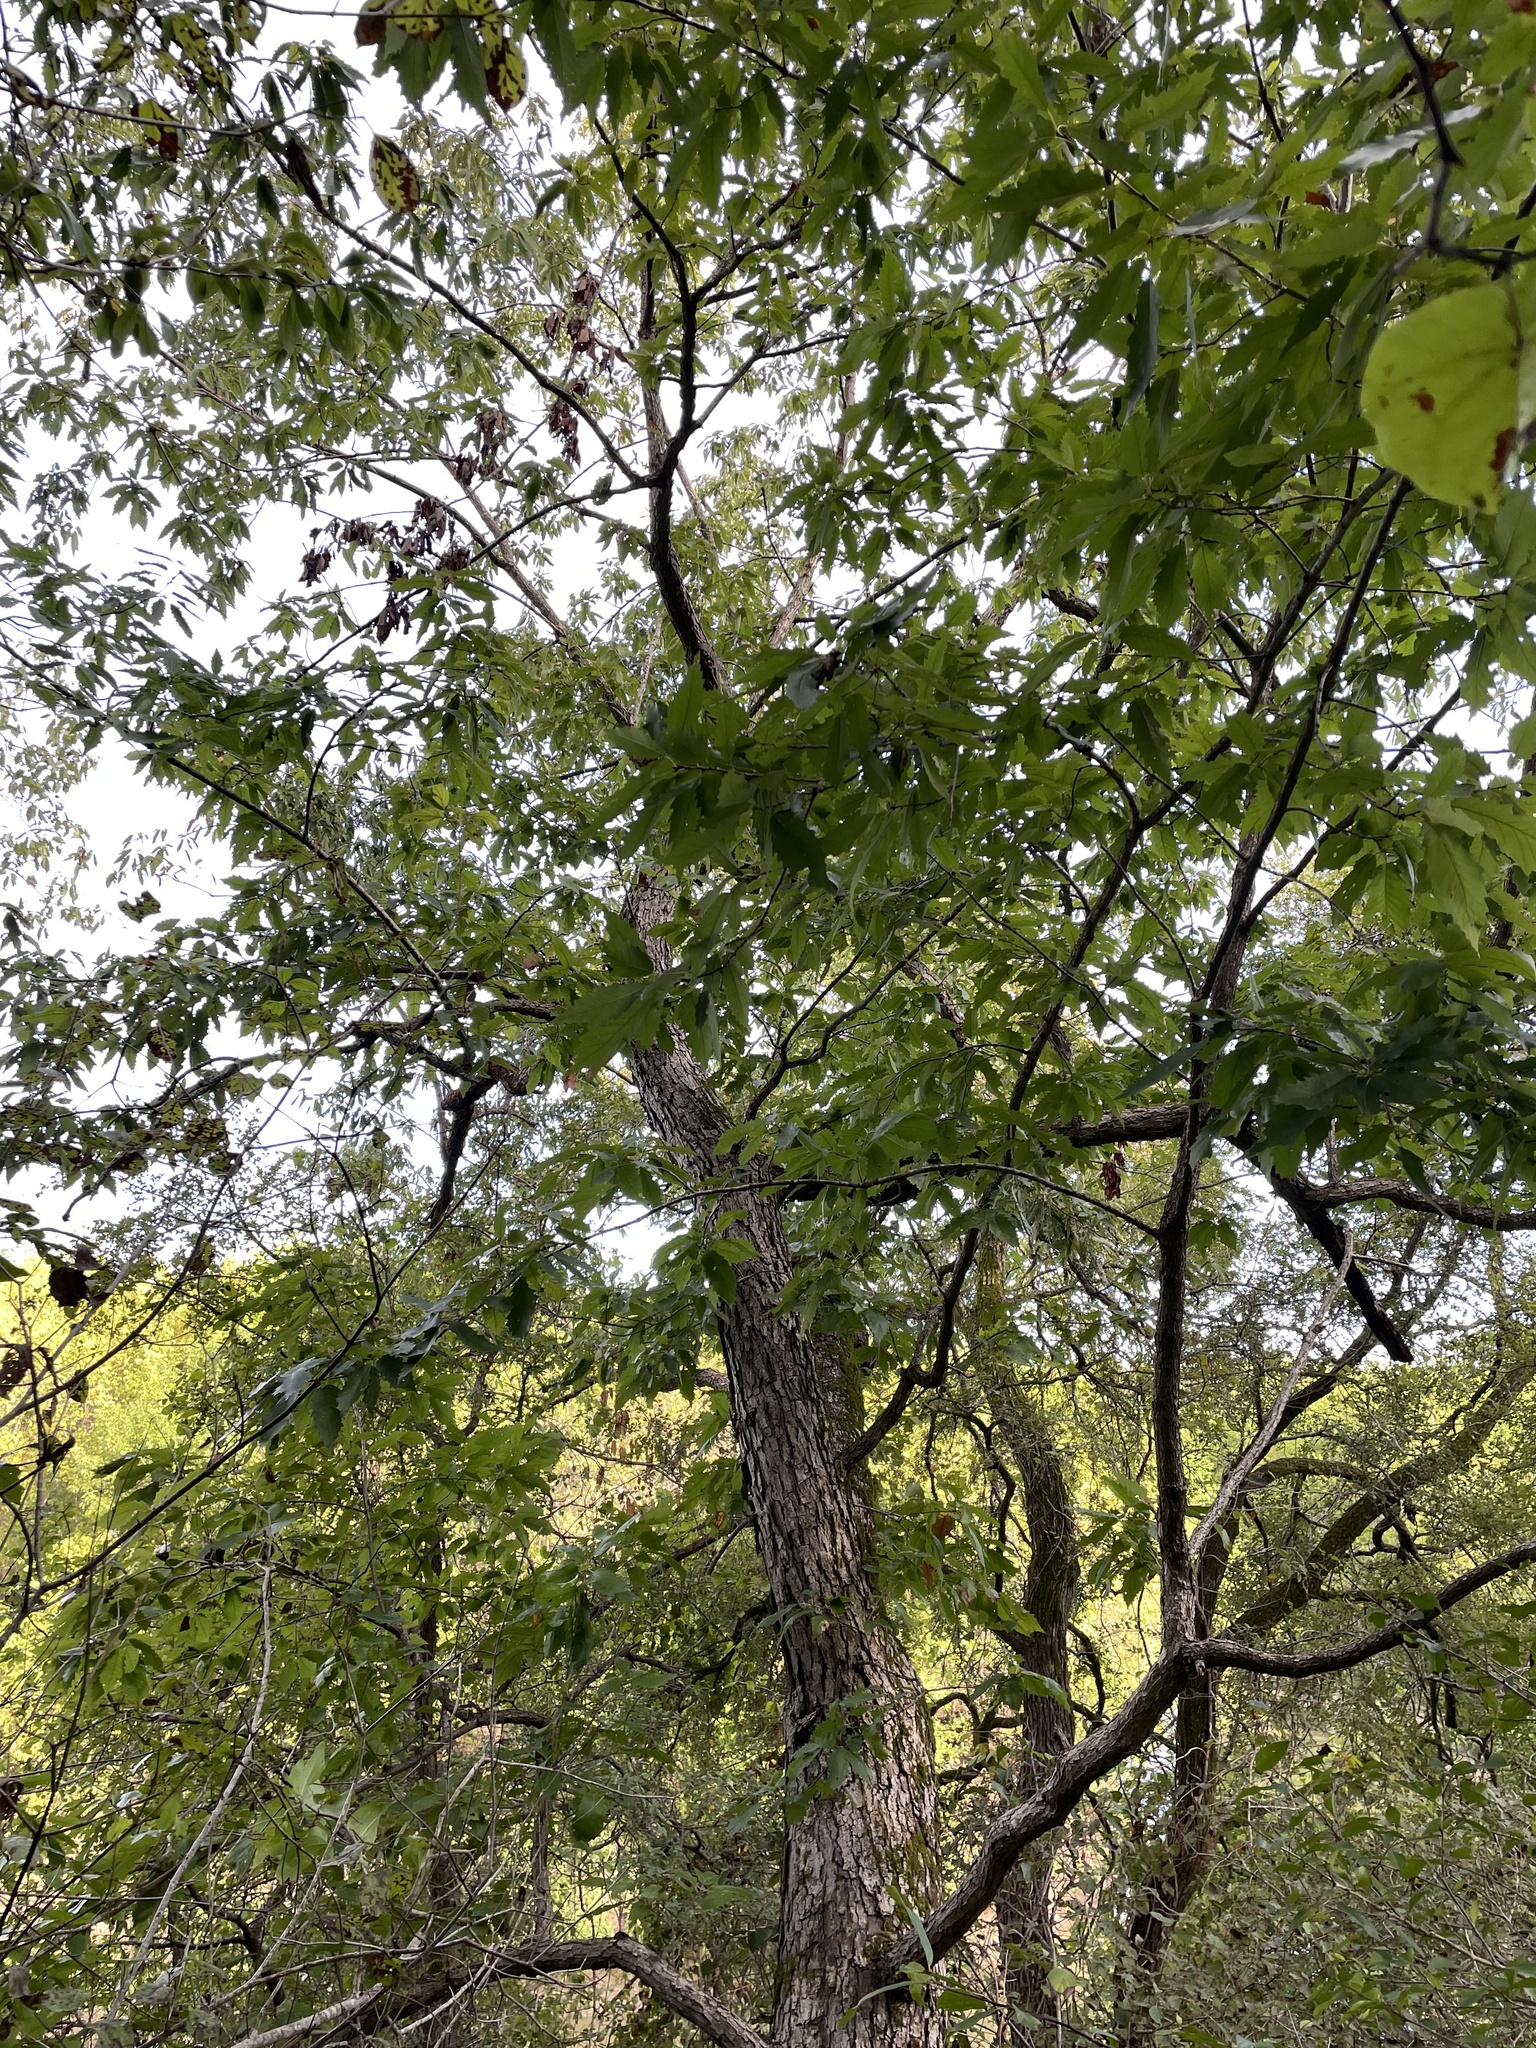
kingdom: Plantae
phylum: Tracheophyta
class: Magnoliopsida
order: Fagales
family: Fagaceae
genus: Quercus
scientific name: Quercus muehlenbergii
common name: Chinkapin oak
